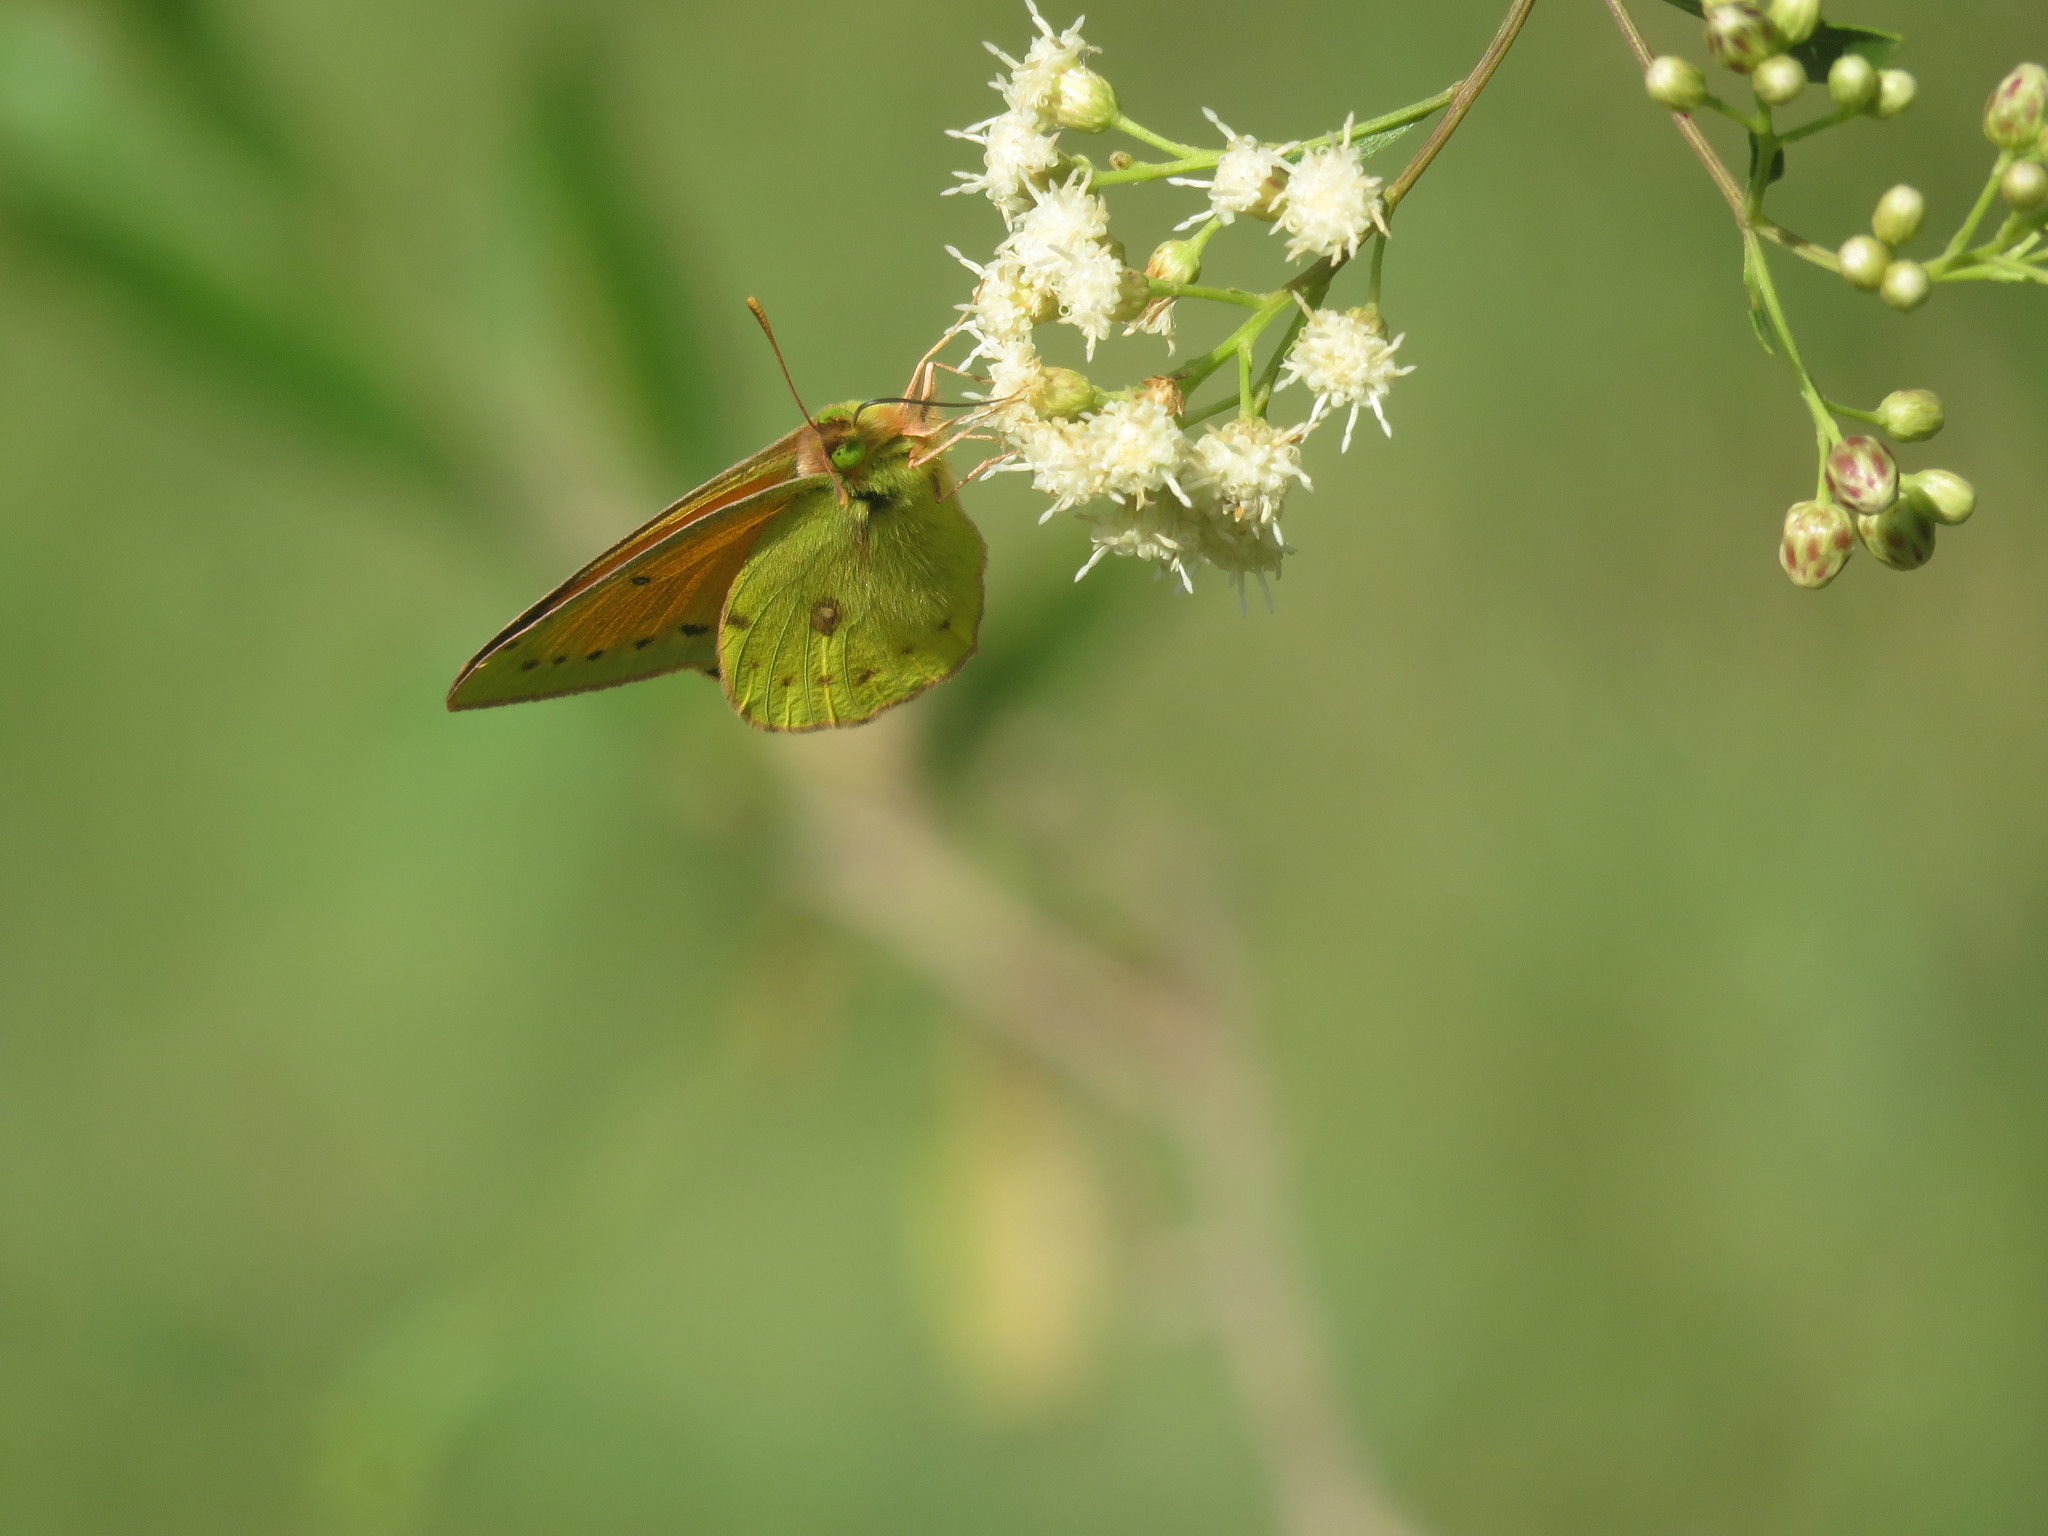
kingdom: Animalia
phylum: Arthropoda
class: Insecta
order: Lepidoptera
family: Pieridae
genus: Colias
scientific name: Colias lesbia
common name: Lesbia clouded yellow
